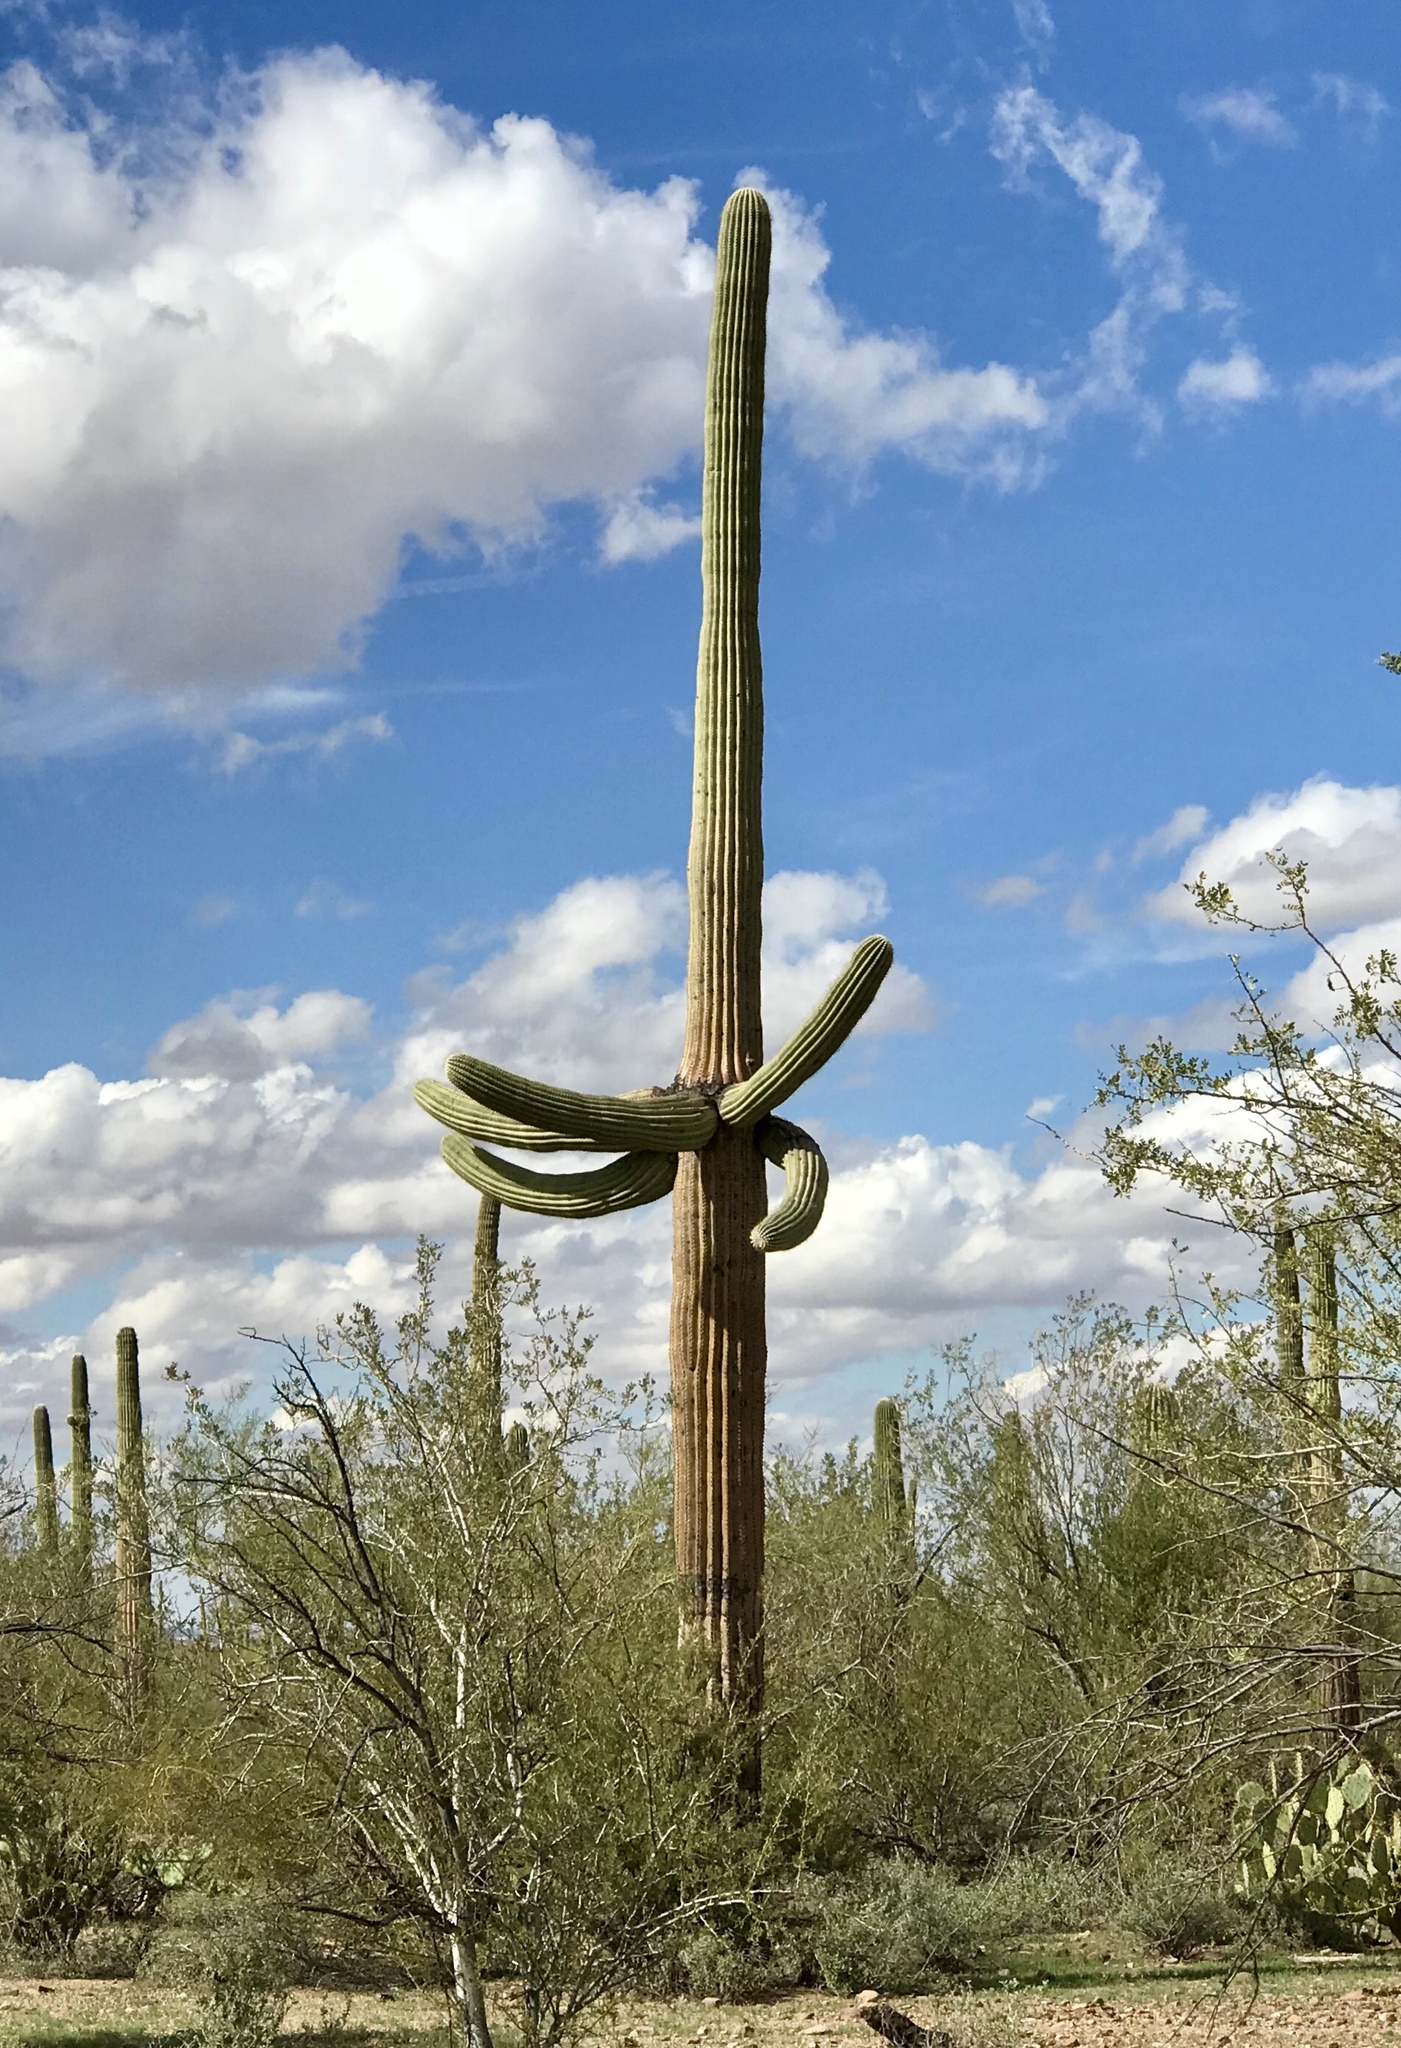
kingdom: Plantae
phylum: Tracheophyta
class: Magnoliopsida
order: Caryophyllales
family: Cactaceae
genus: Carnegiea
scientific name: Carnegiea gigantea
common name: Saguaro
